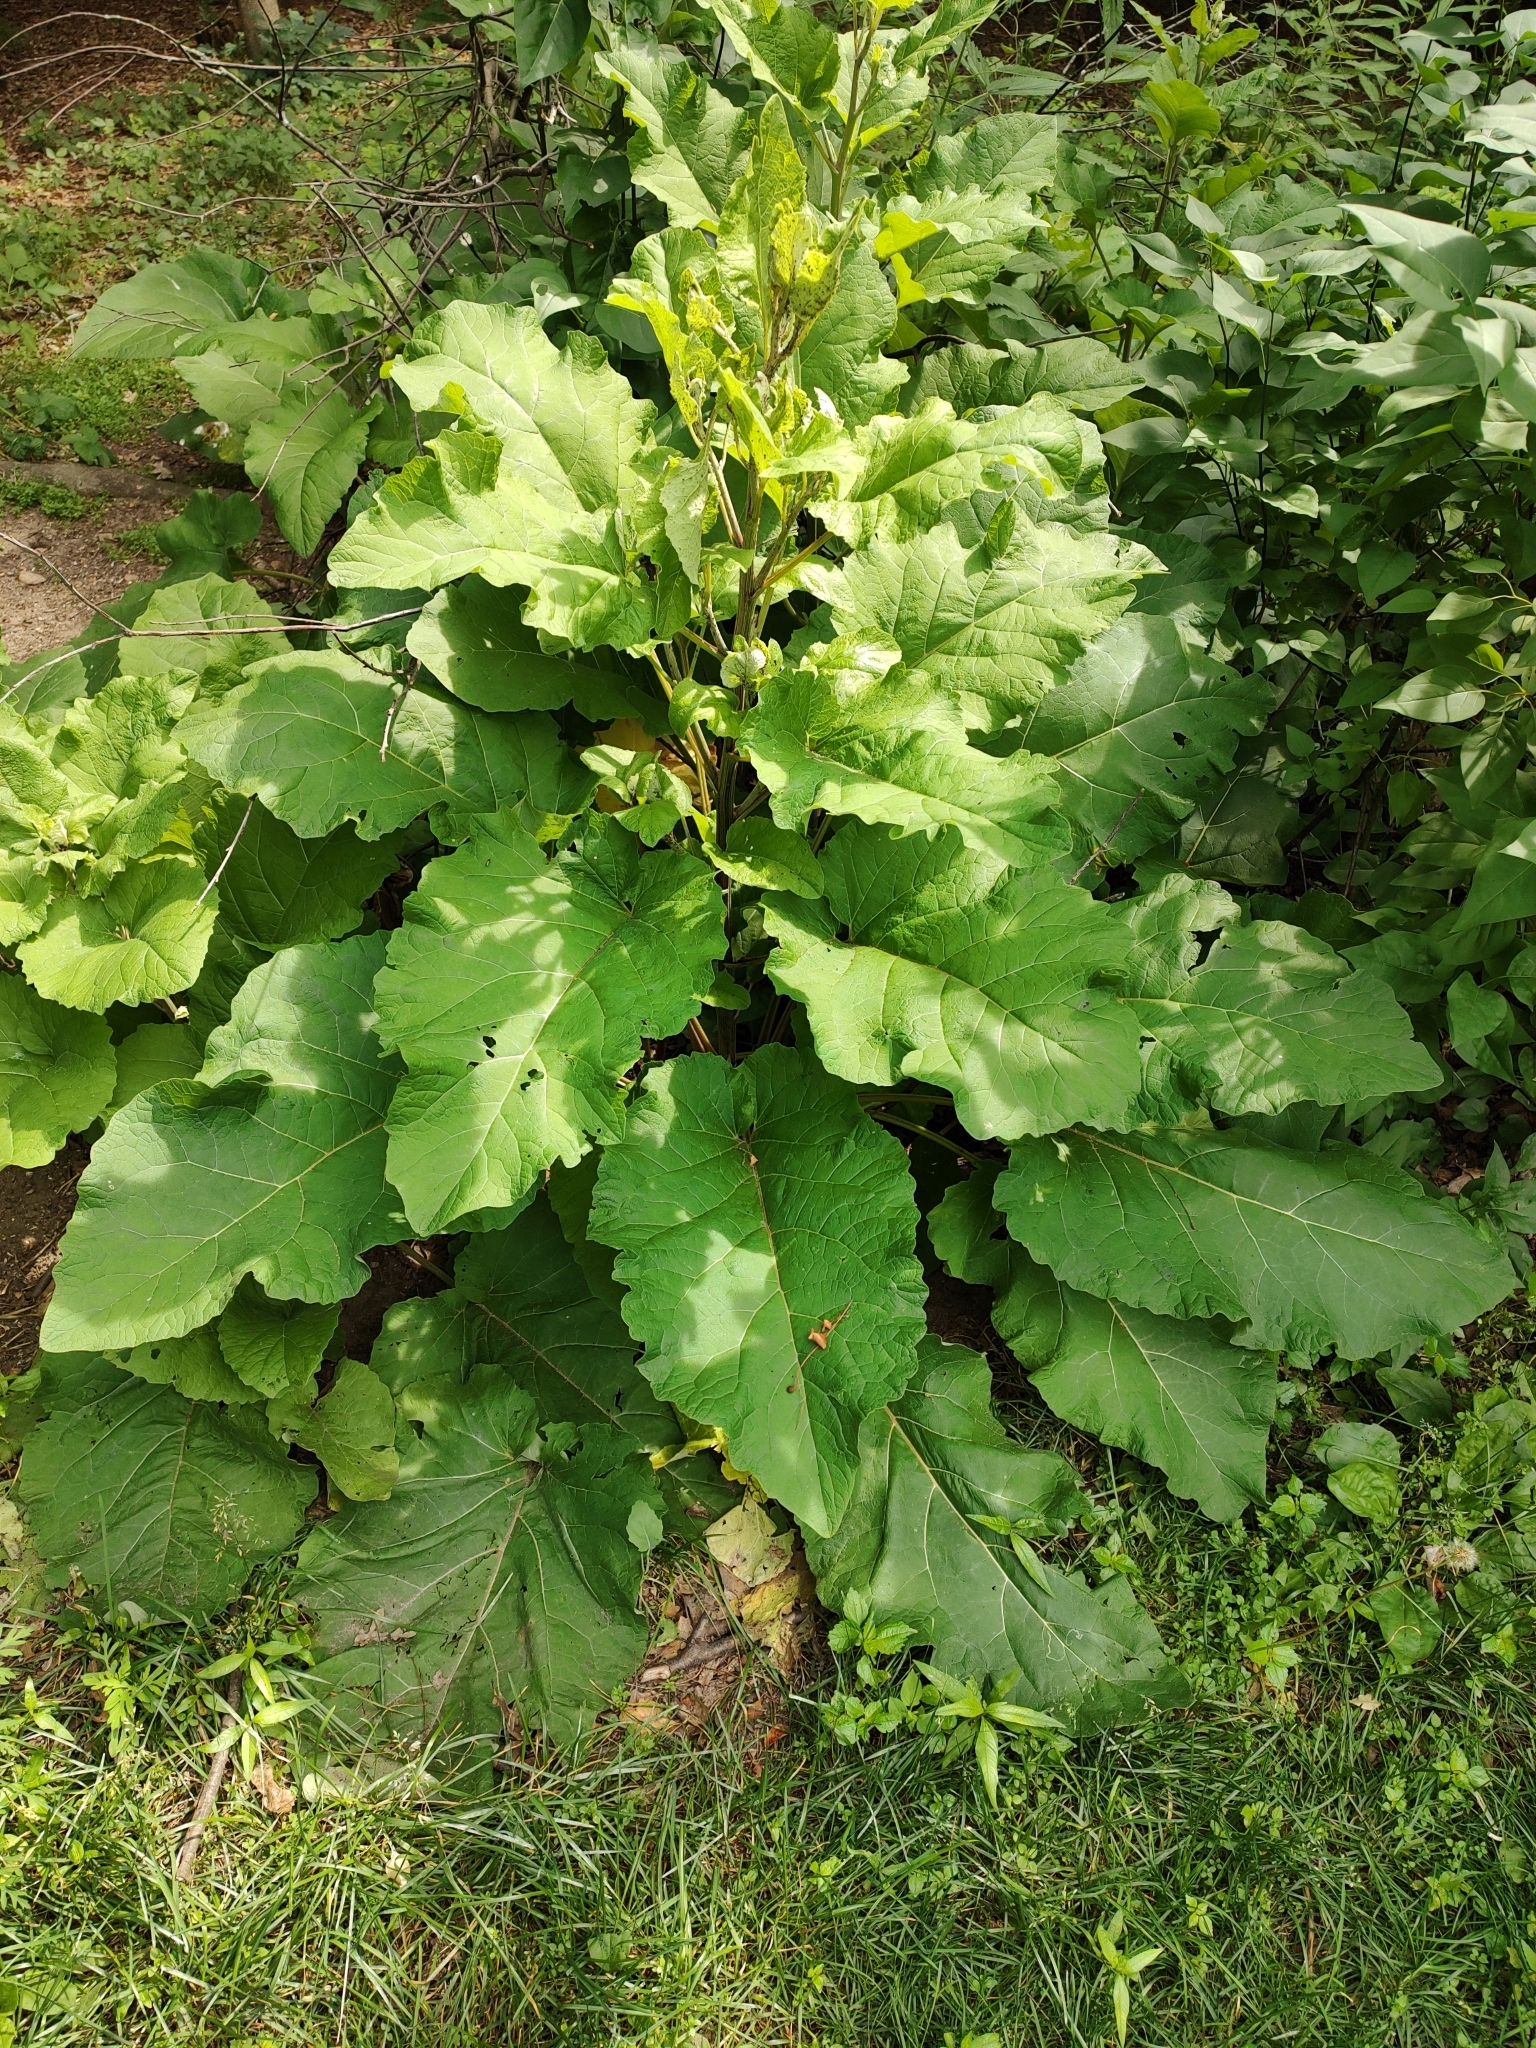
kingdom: Plantae
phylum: Tracheophyta
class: Magnoliopsida
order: Asterales
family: Asteraceae
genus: Arctium
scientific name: Arctium
